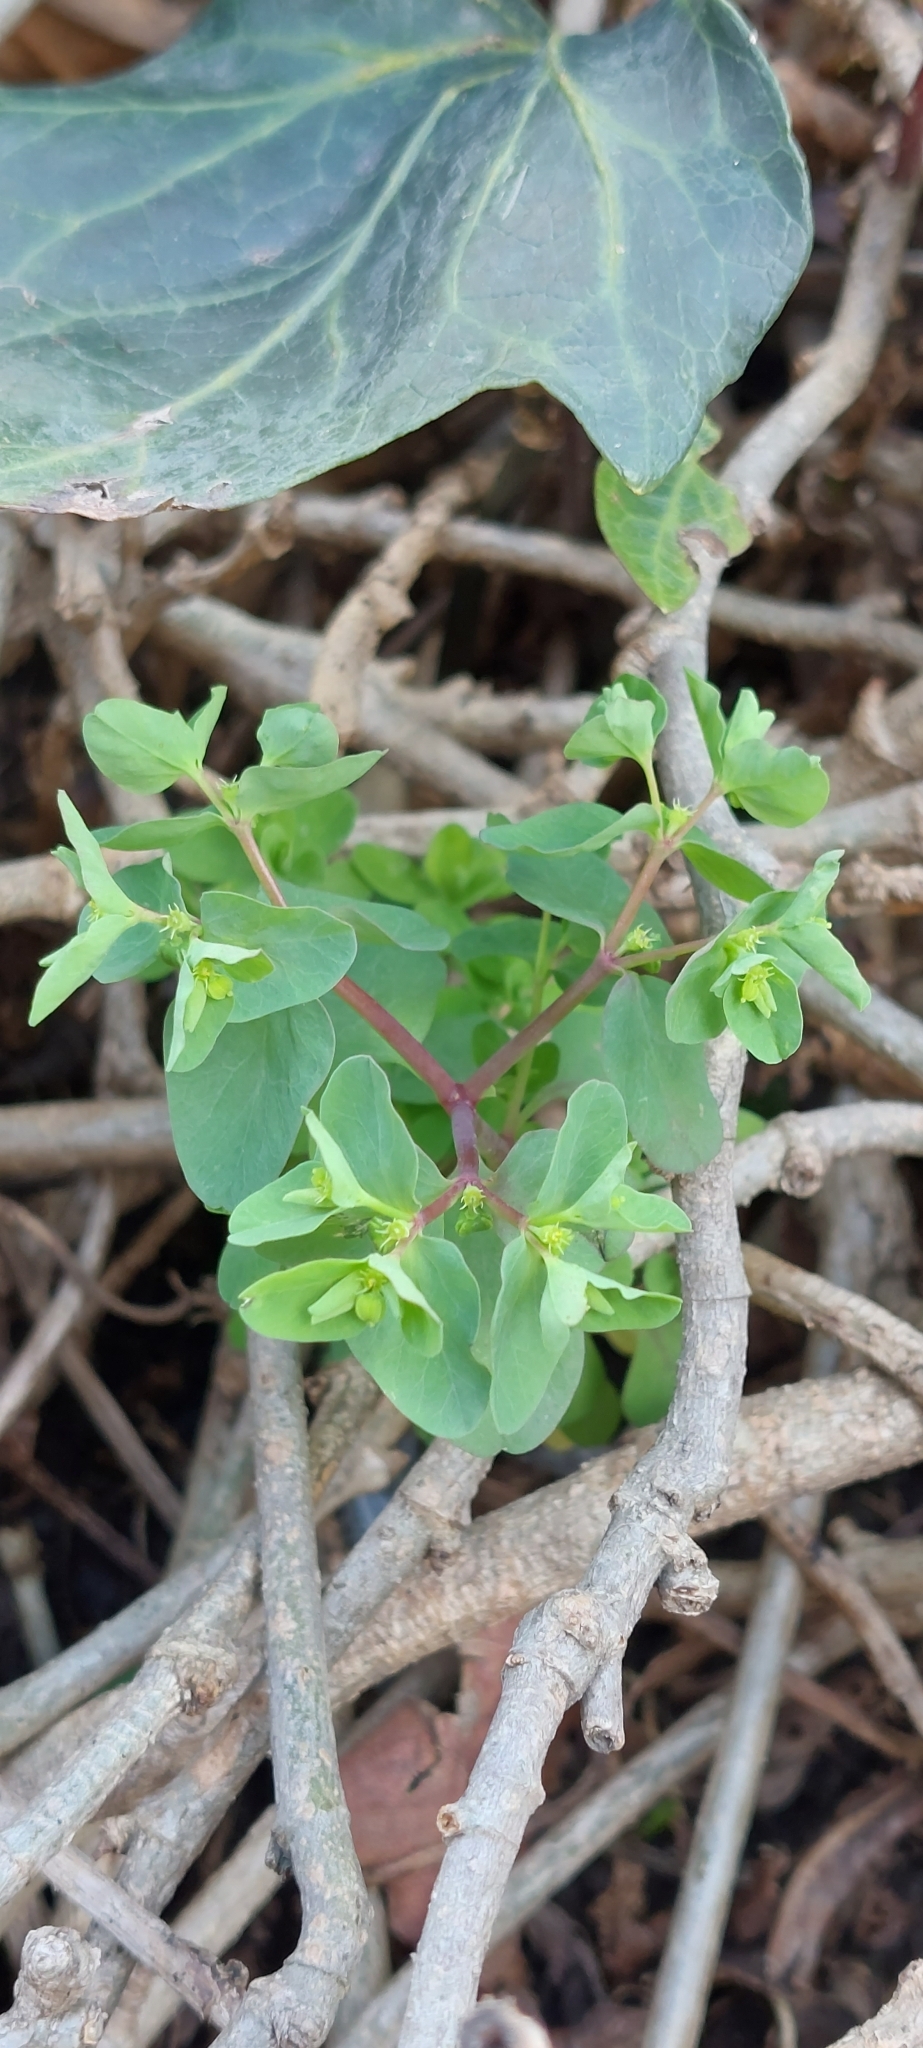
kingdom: Plantae
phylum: Tracheophyta
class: Magnoliopsida
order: Malpighiales
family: Euphorbiaceae
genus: Euphorbia
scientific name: Euphorbia peplus
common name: Petty spurge
